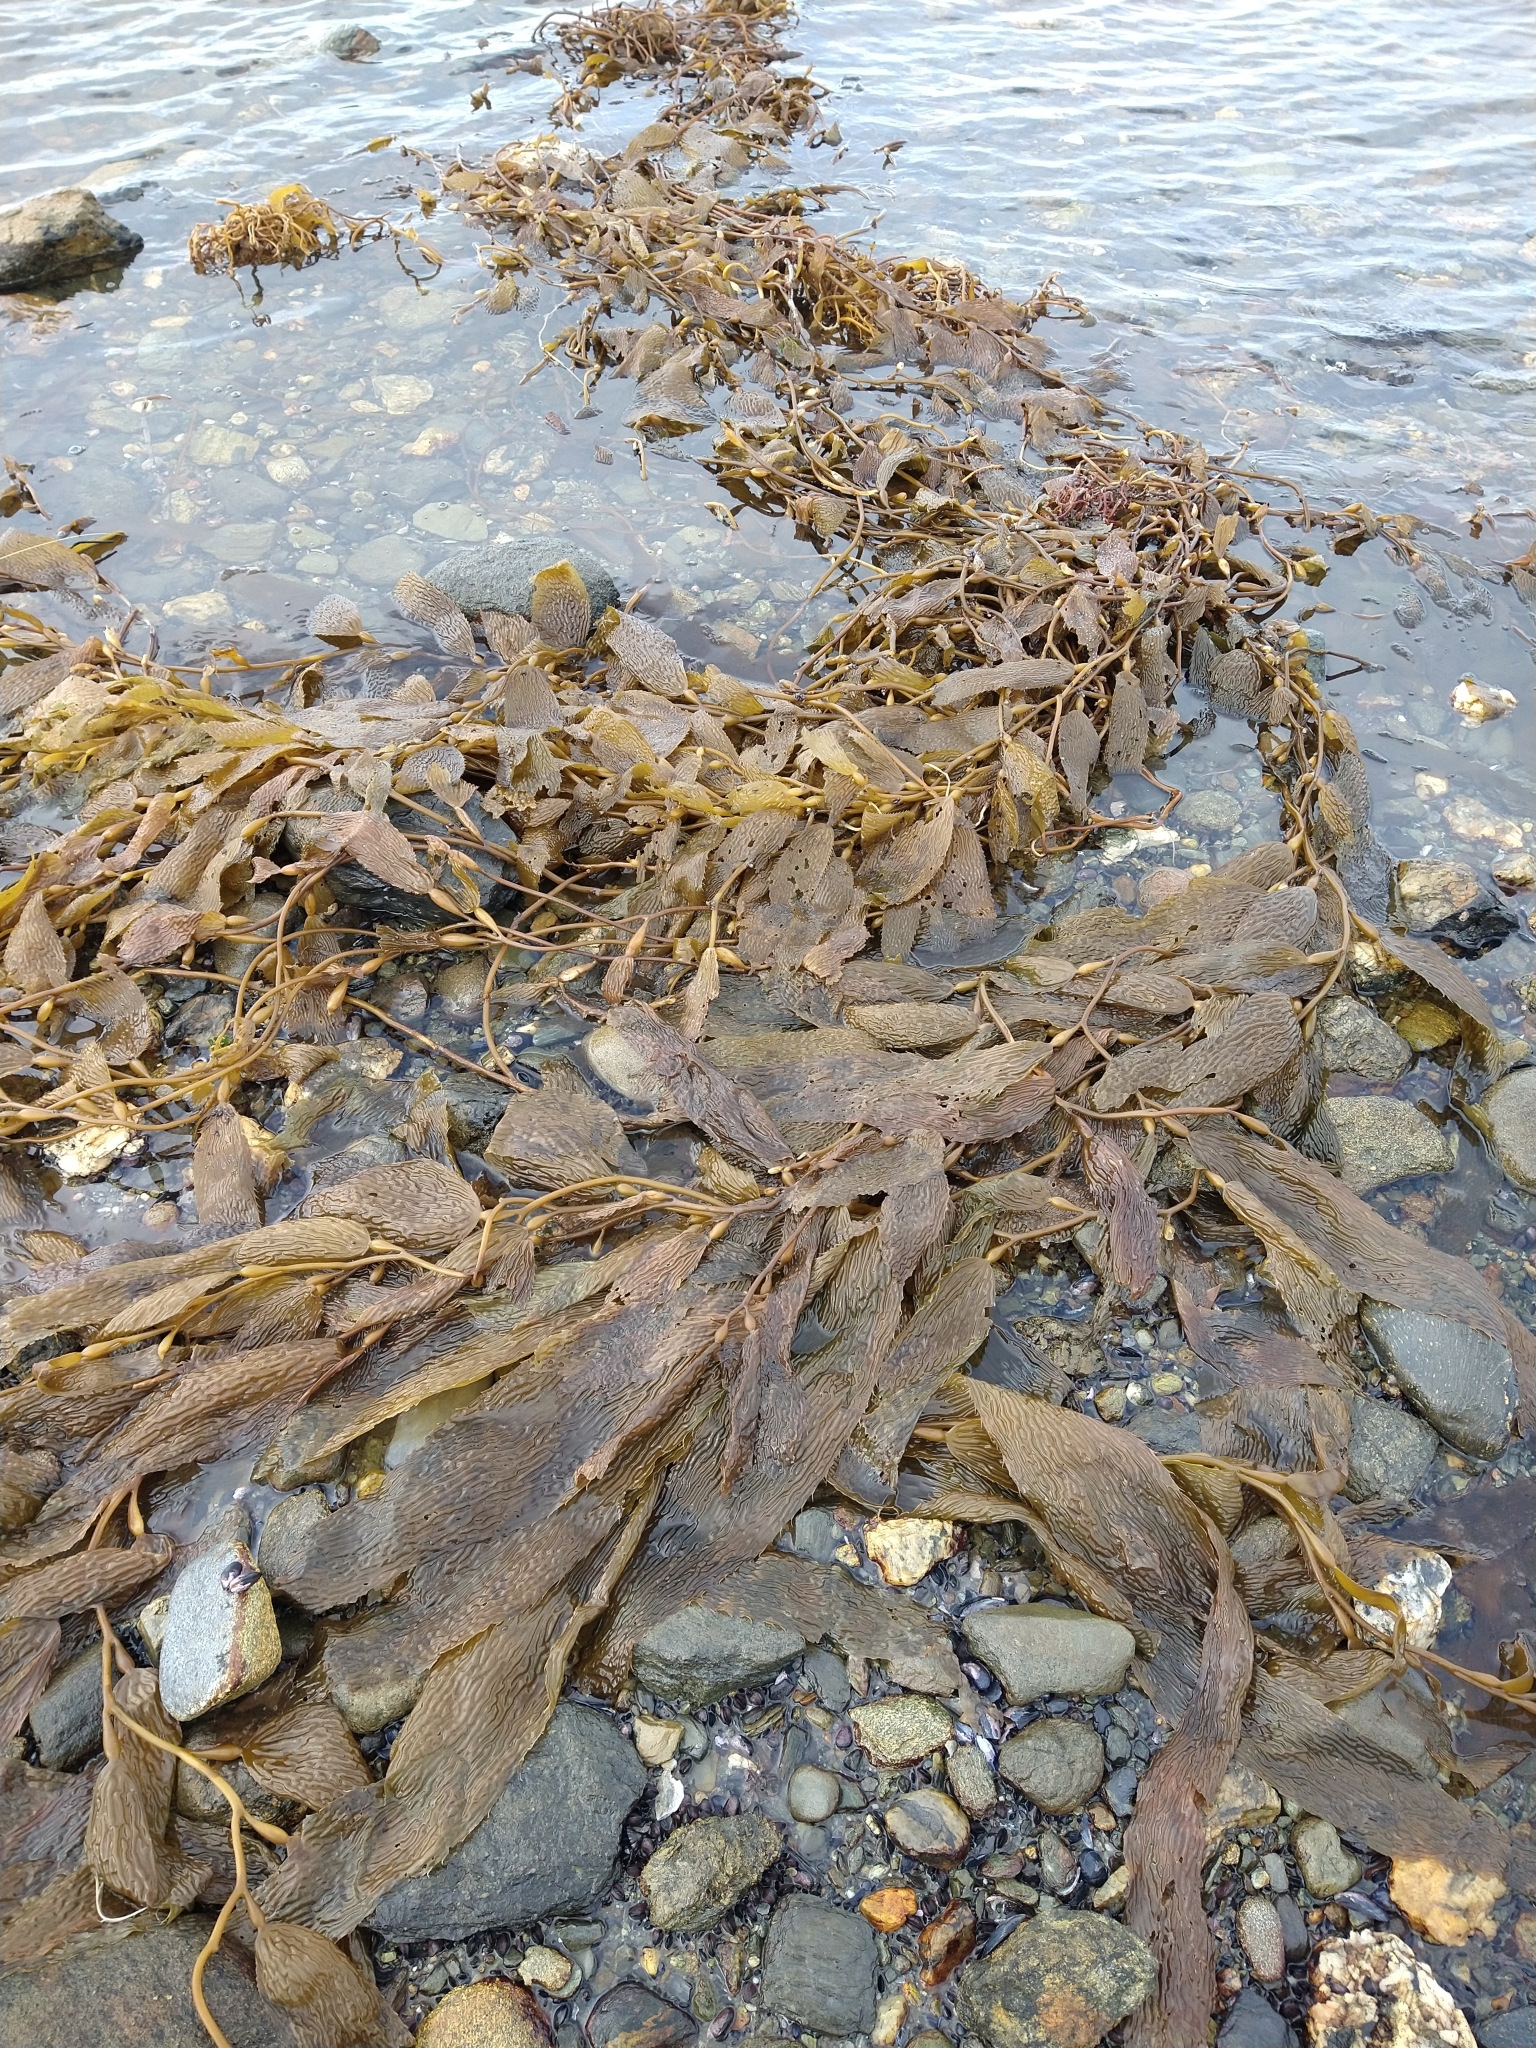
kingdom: Chromista
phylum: Ochrophyta
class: Phaeophyceae
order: Laminariales
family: Laminariaceae
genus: Macrocystis
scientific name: Macrocystis pyrifera
